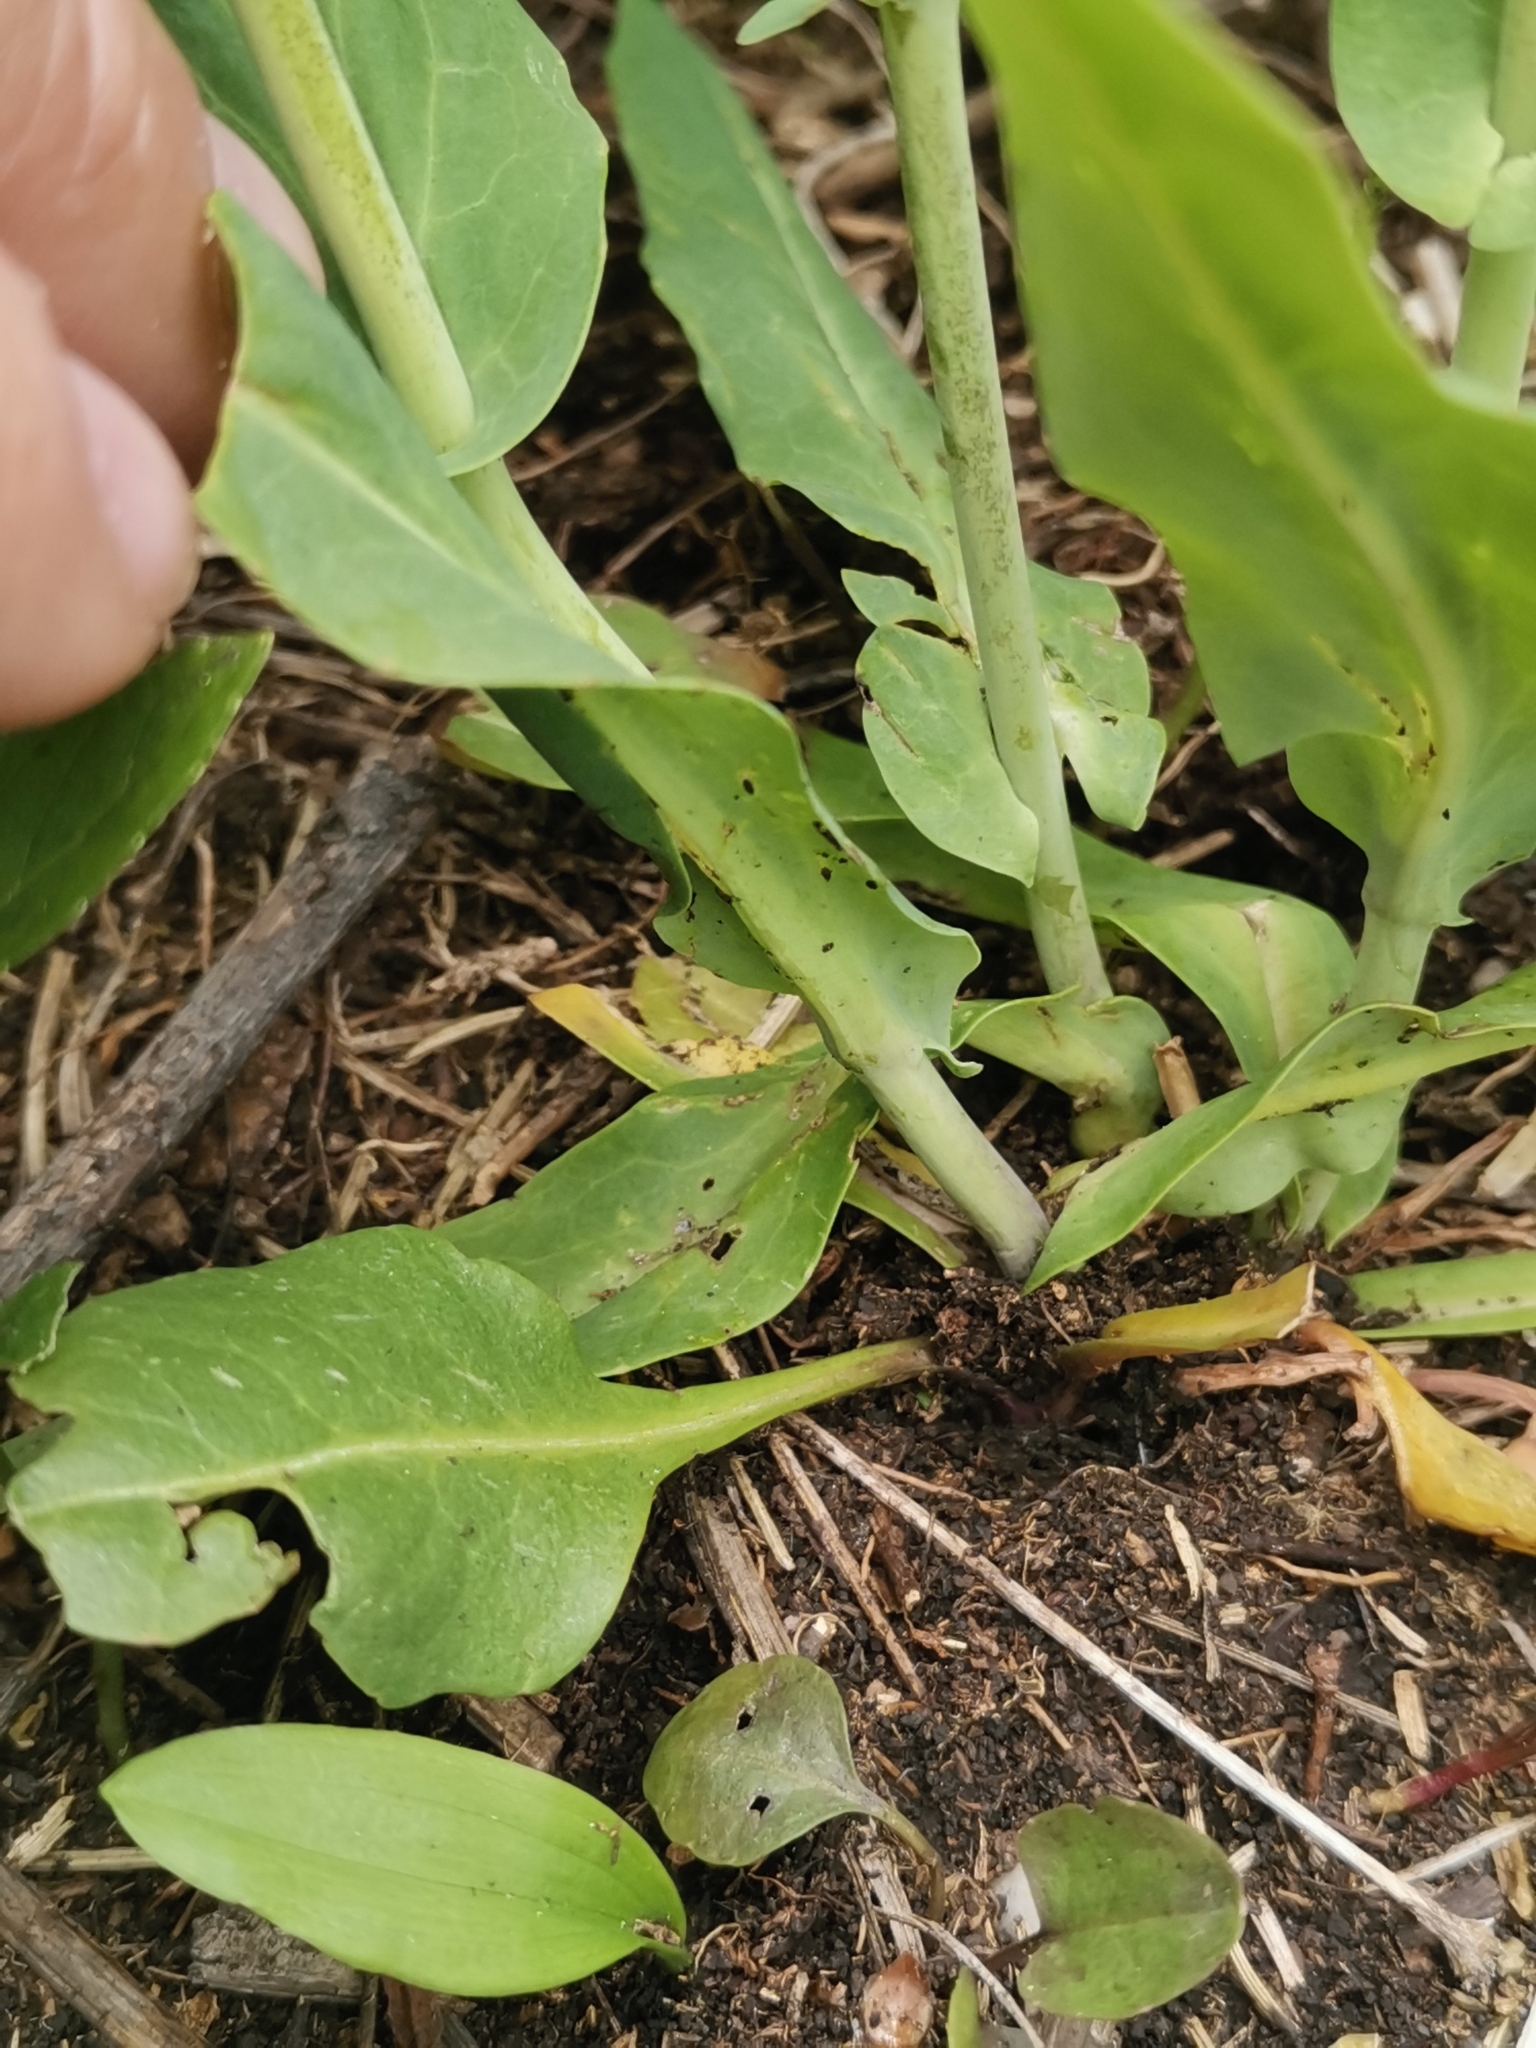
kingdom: Plantae
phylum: Tracheophyta
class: Magnoliopsida
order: Brassicales
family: Brassicaceae
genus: Fourraea
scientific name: Fourraea alpina
